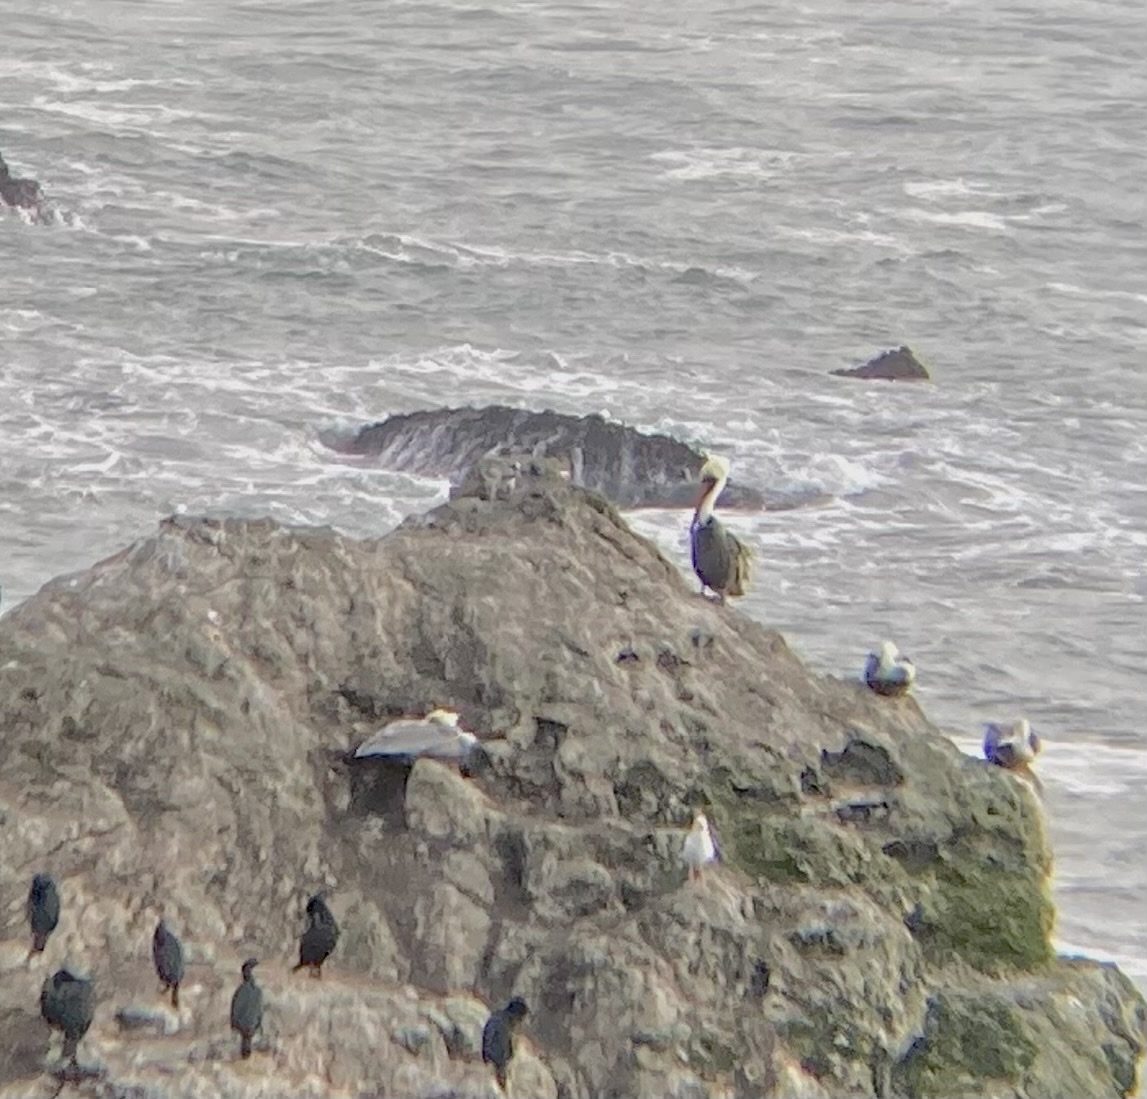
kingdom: Animalia
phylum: Chordata
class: Aves
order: Pelecaniformes
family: Pelecanidae
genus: Pelecanus
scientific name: Pelecanus occidentalis
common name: Brown pelican
